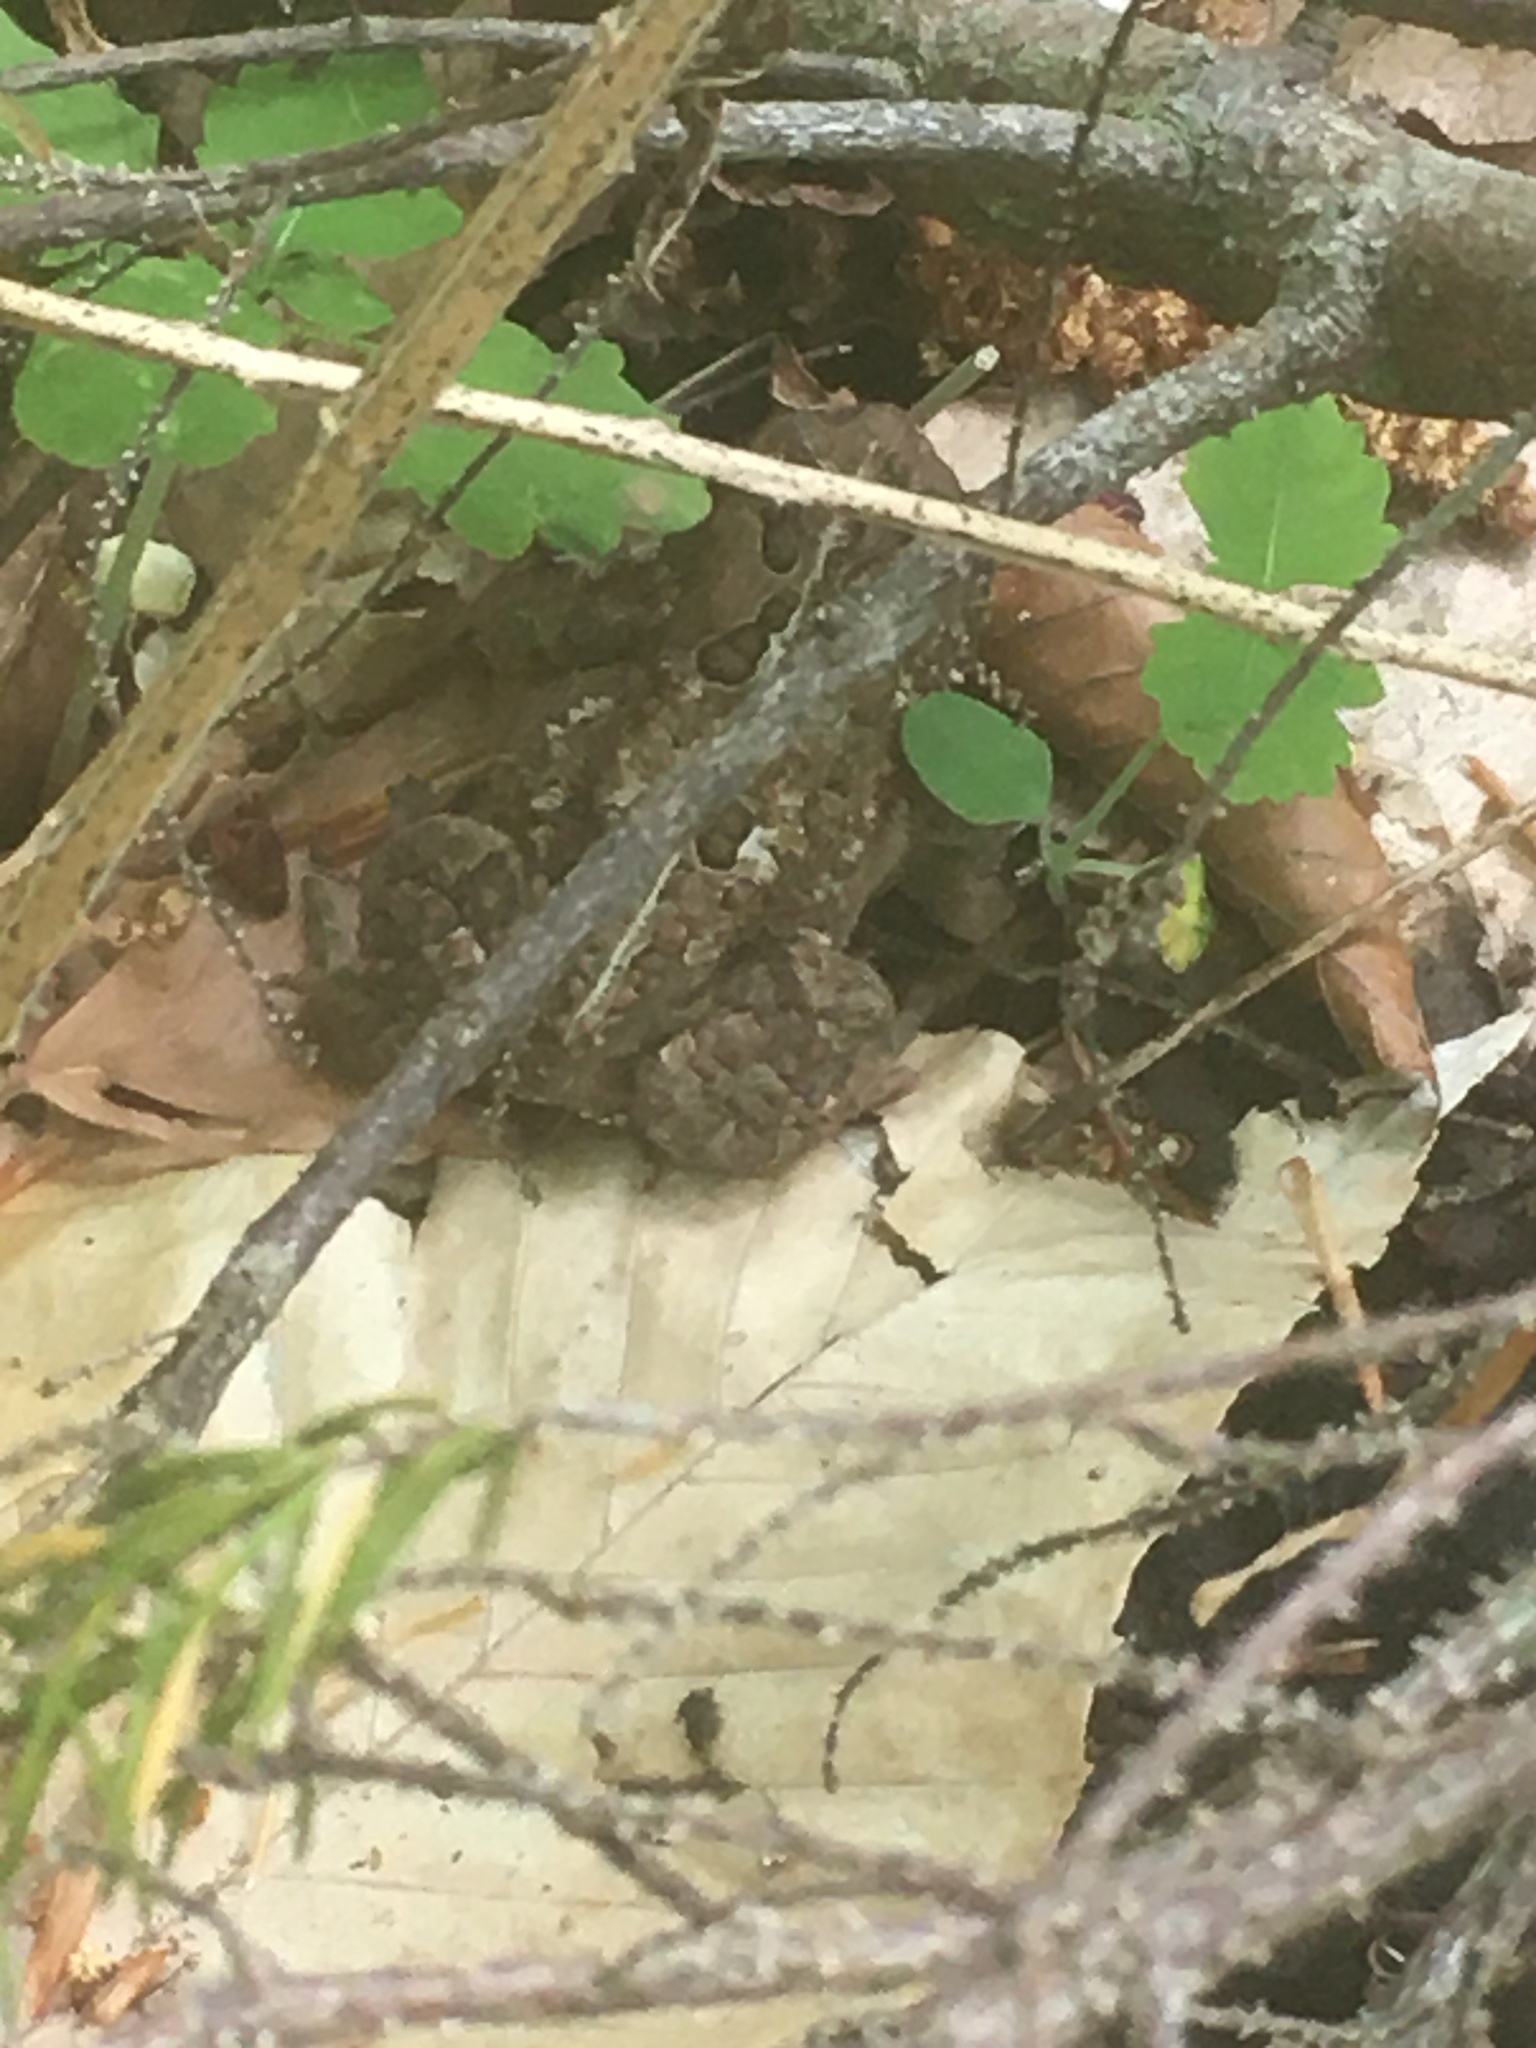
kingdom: Animalia
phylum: Chordata
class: Amphibia
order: Anura
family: Bufonidae
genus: Anaxyrus
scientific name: Anaxyrus americanus
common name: American toad
